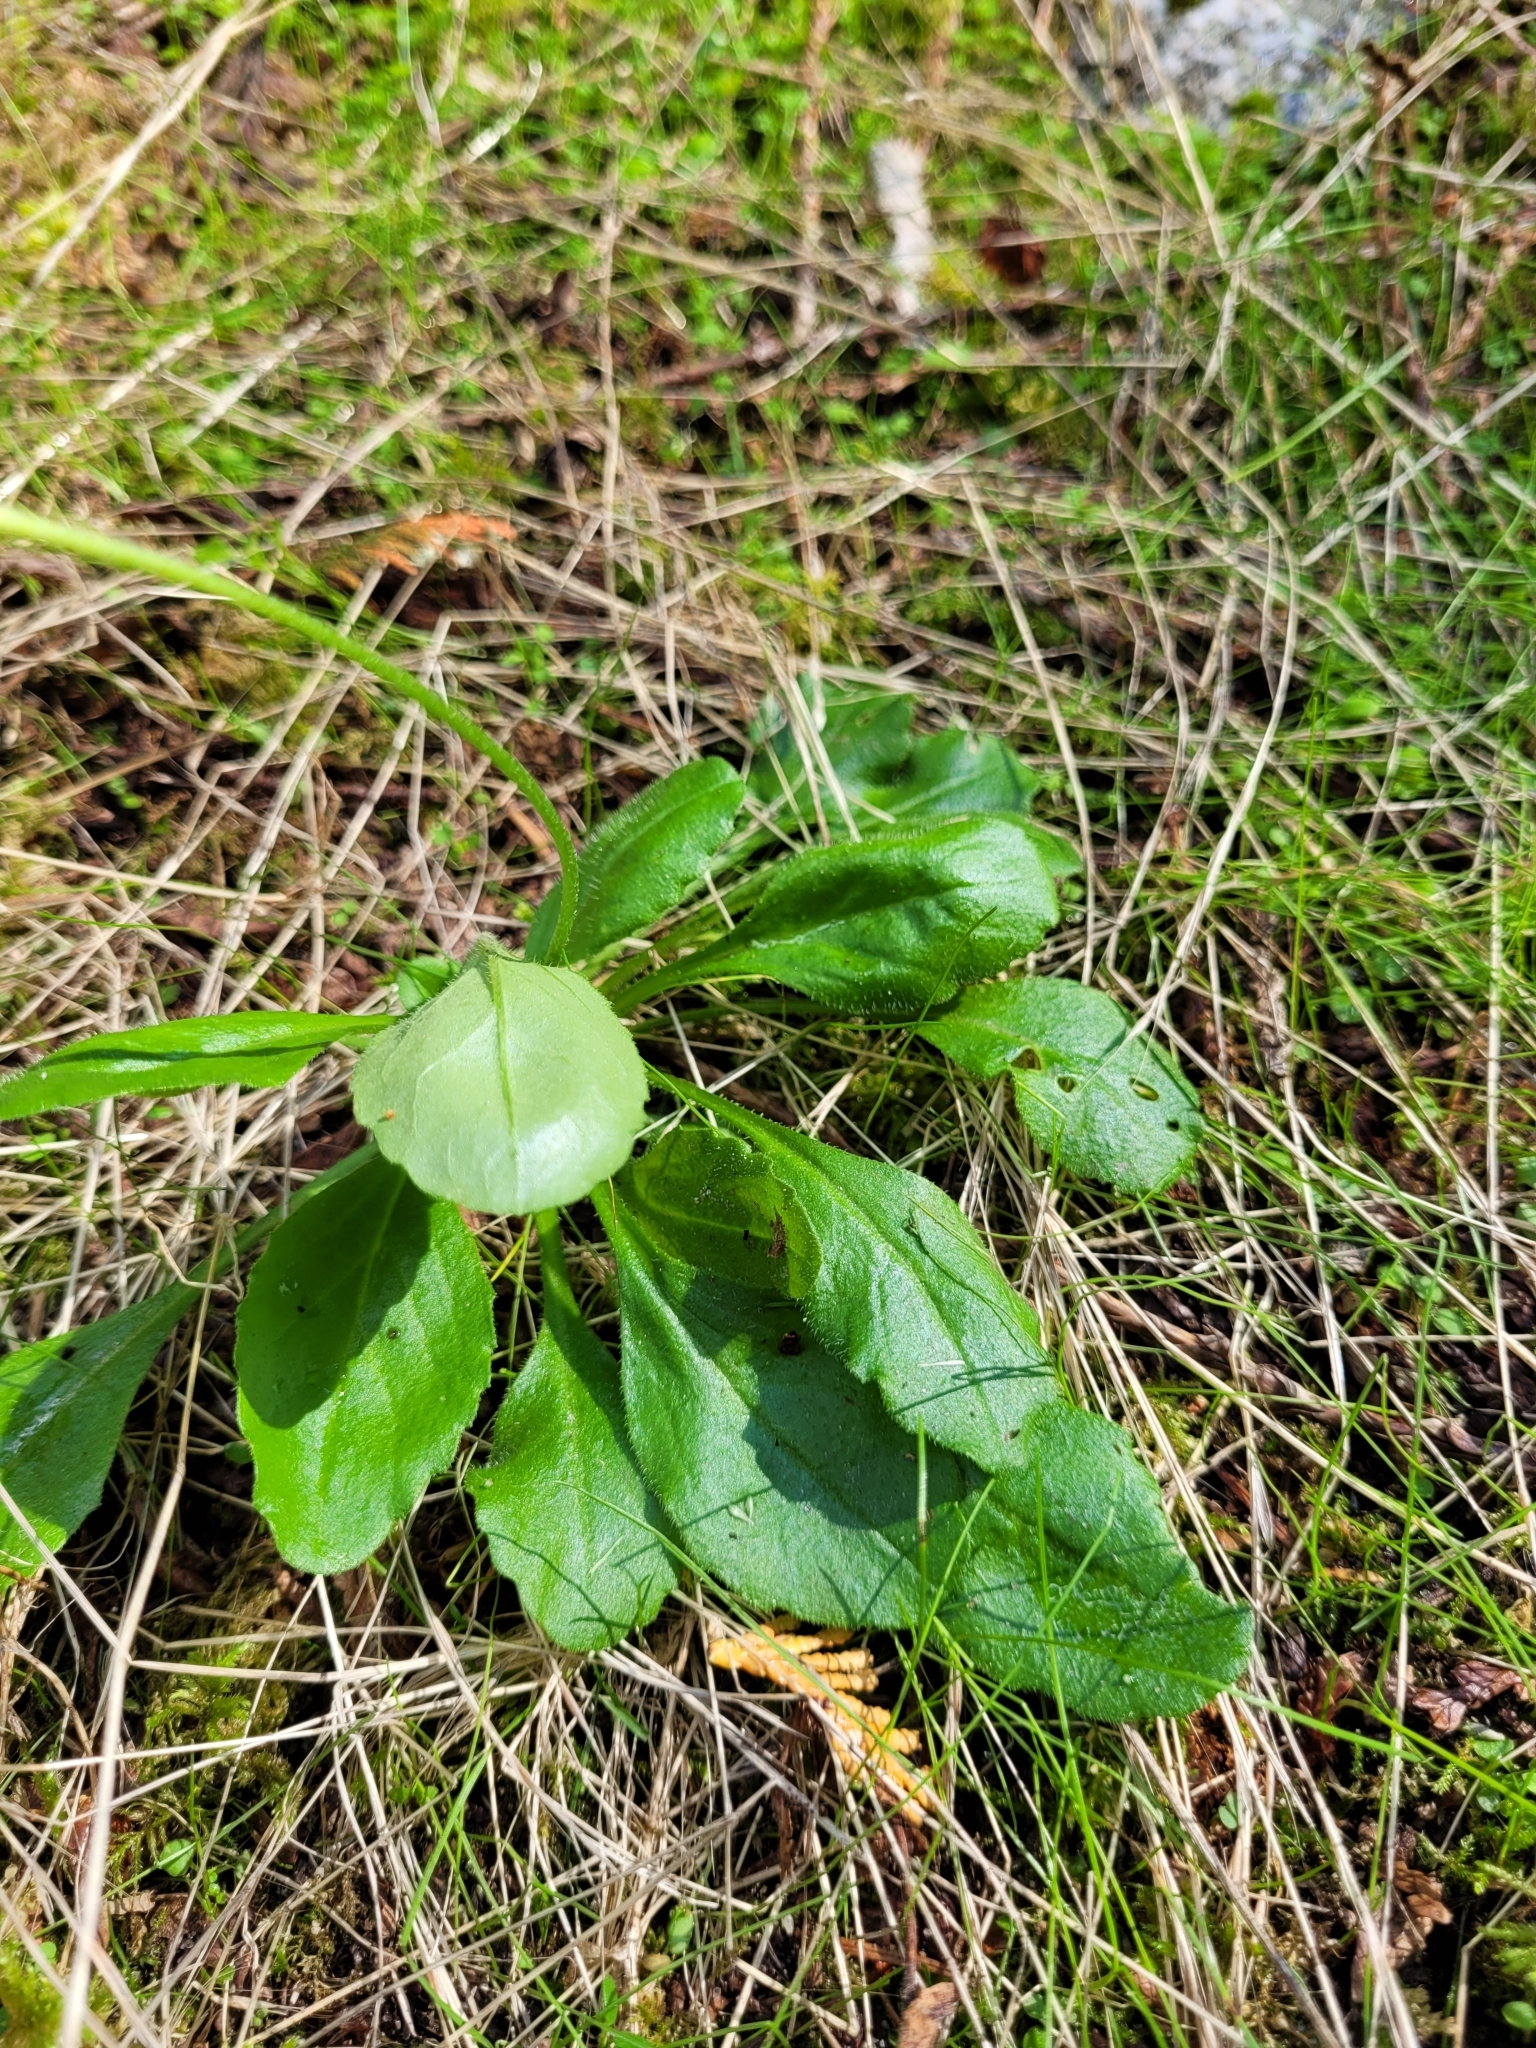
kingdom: Plantae
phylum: Tracheophyta
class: Magnoliopsida
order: Asterales
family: Asteraceae
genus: Bellis
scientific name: Bellis perennis
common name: Lawndaisy
